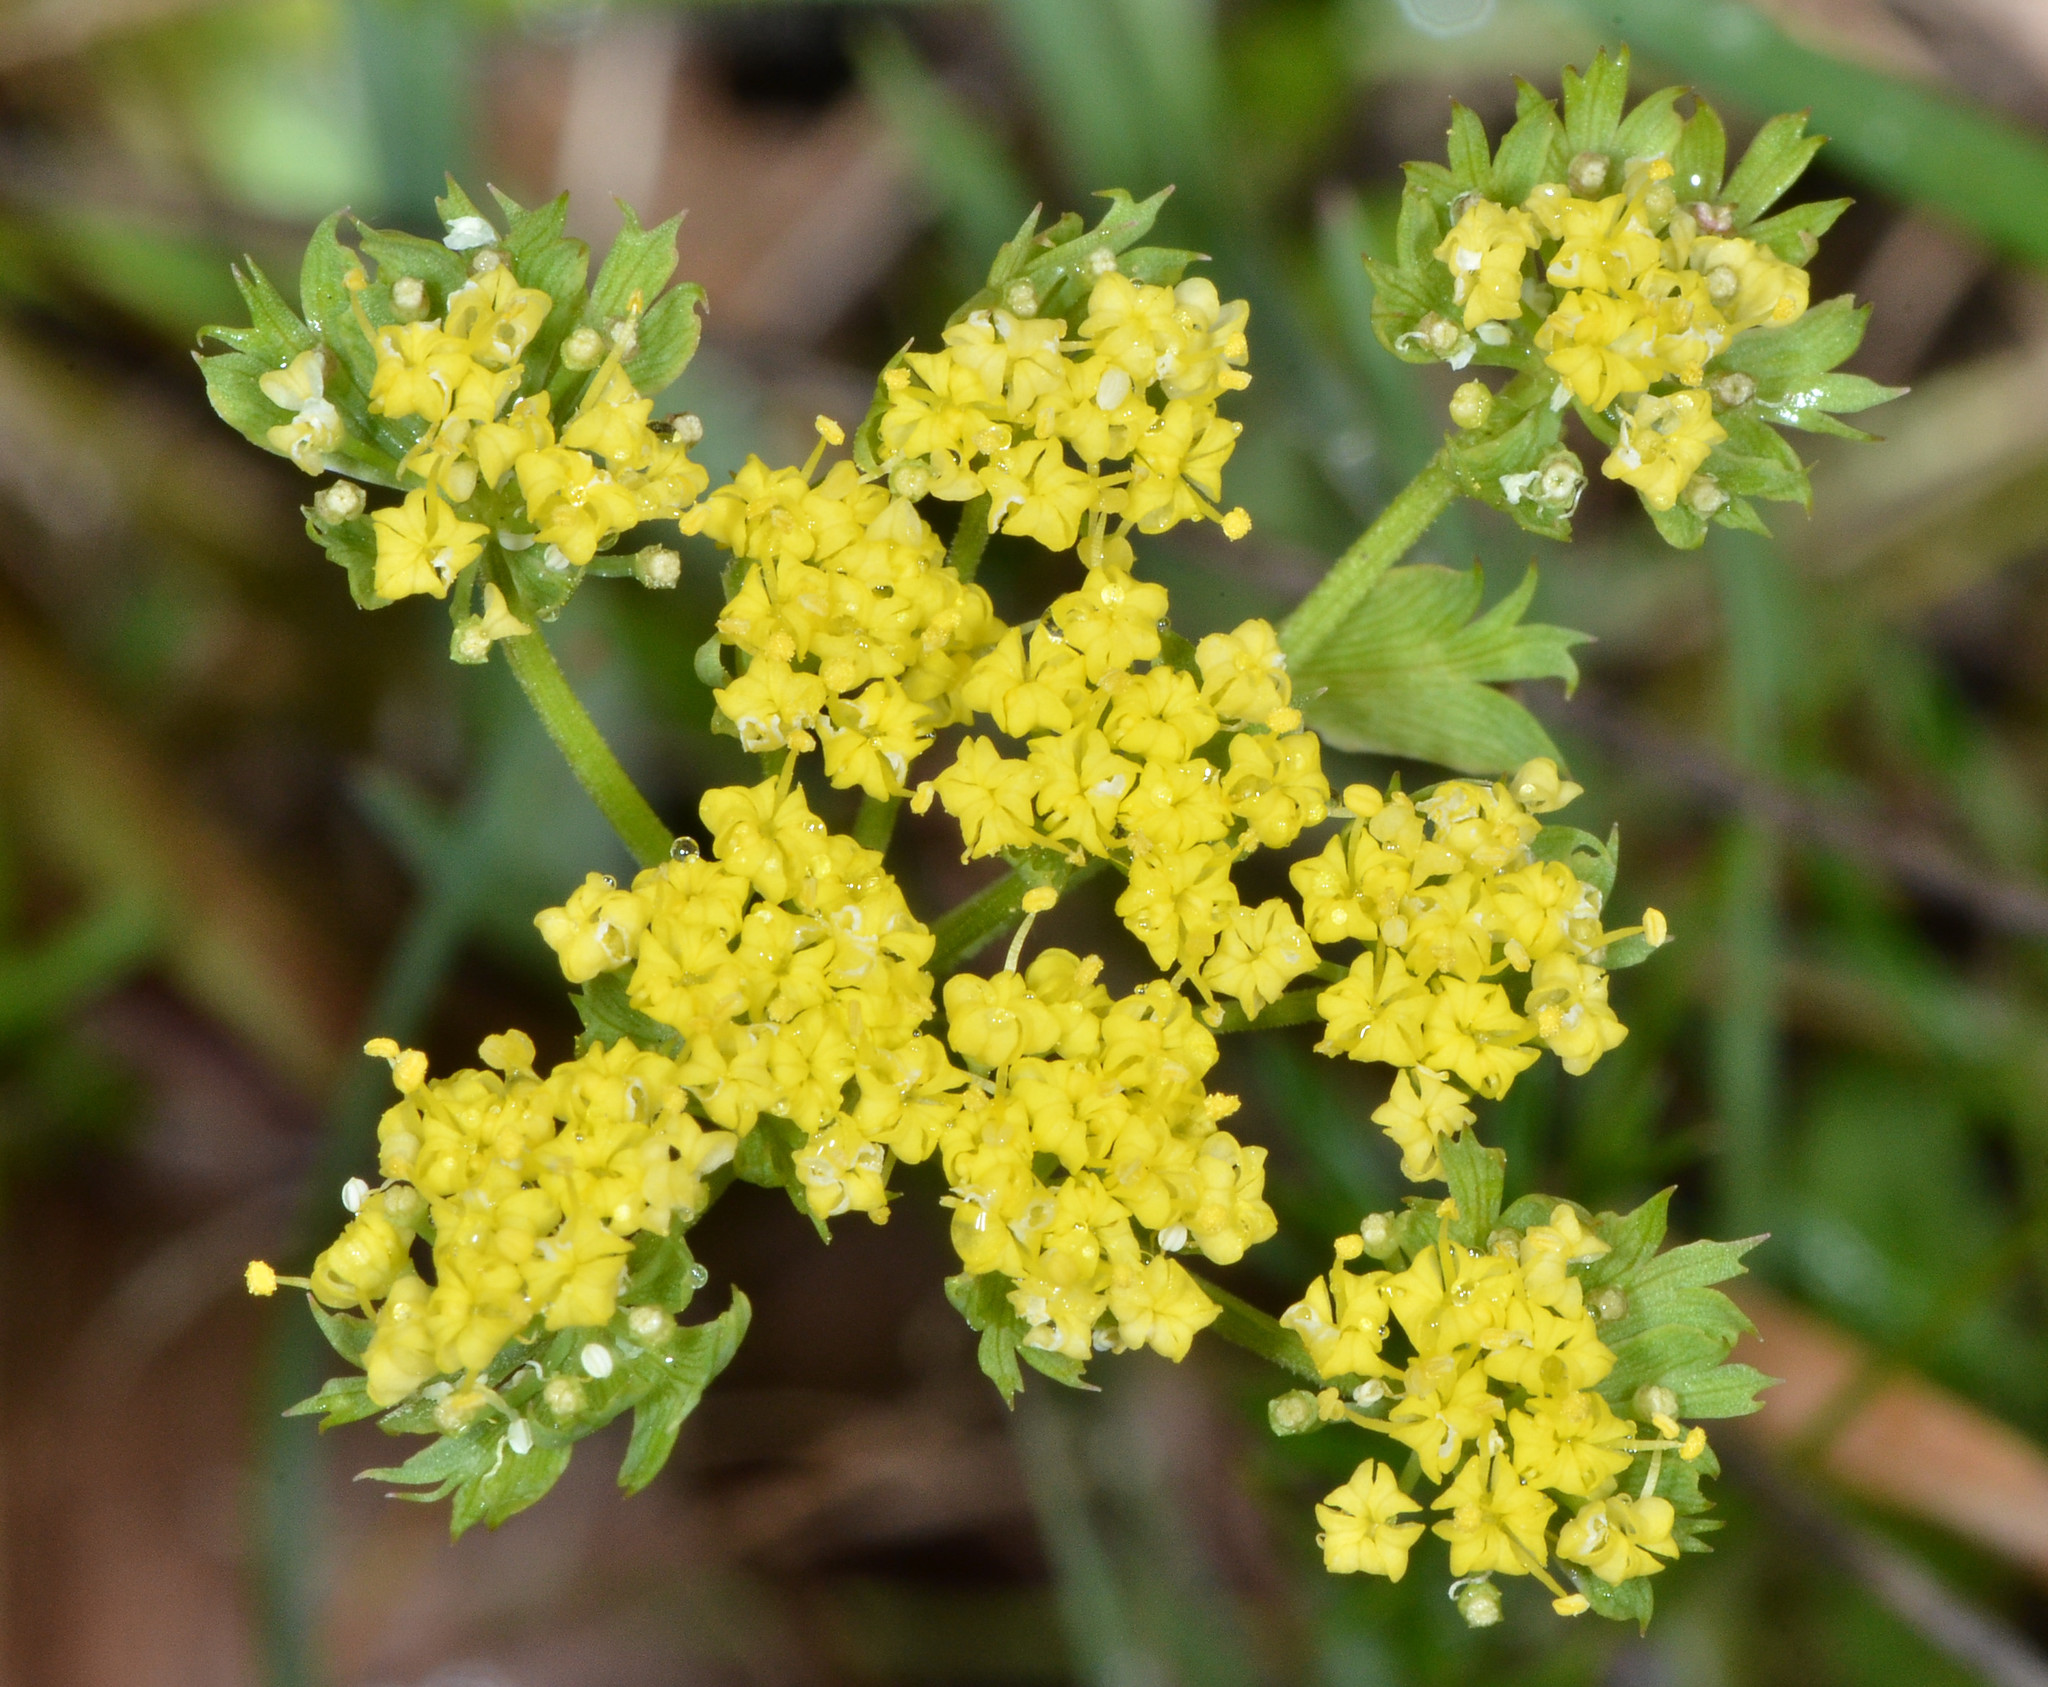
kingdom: Plantae
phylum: Tracheophyta
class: Magnoliopsida
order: Apiales
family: Apiaceae
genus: Lomatium
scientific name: Lomatium utriculatum
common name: Fine-leaf desert-parsley
